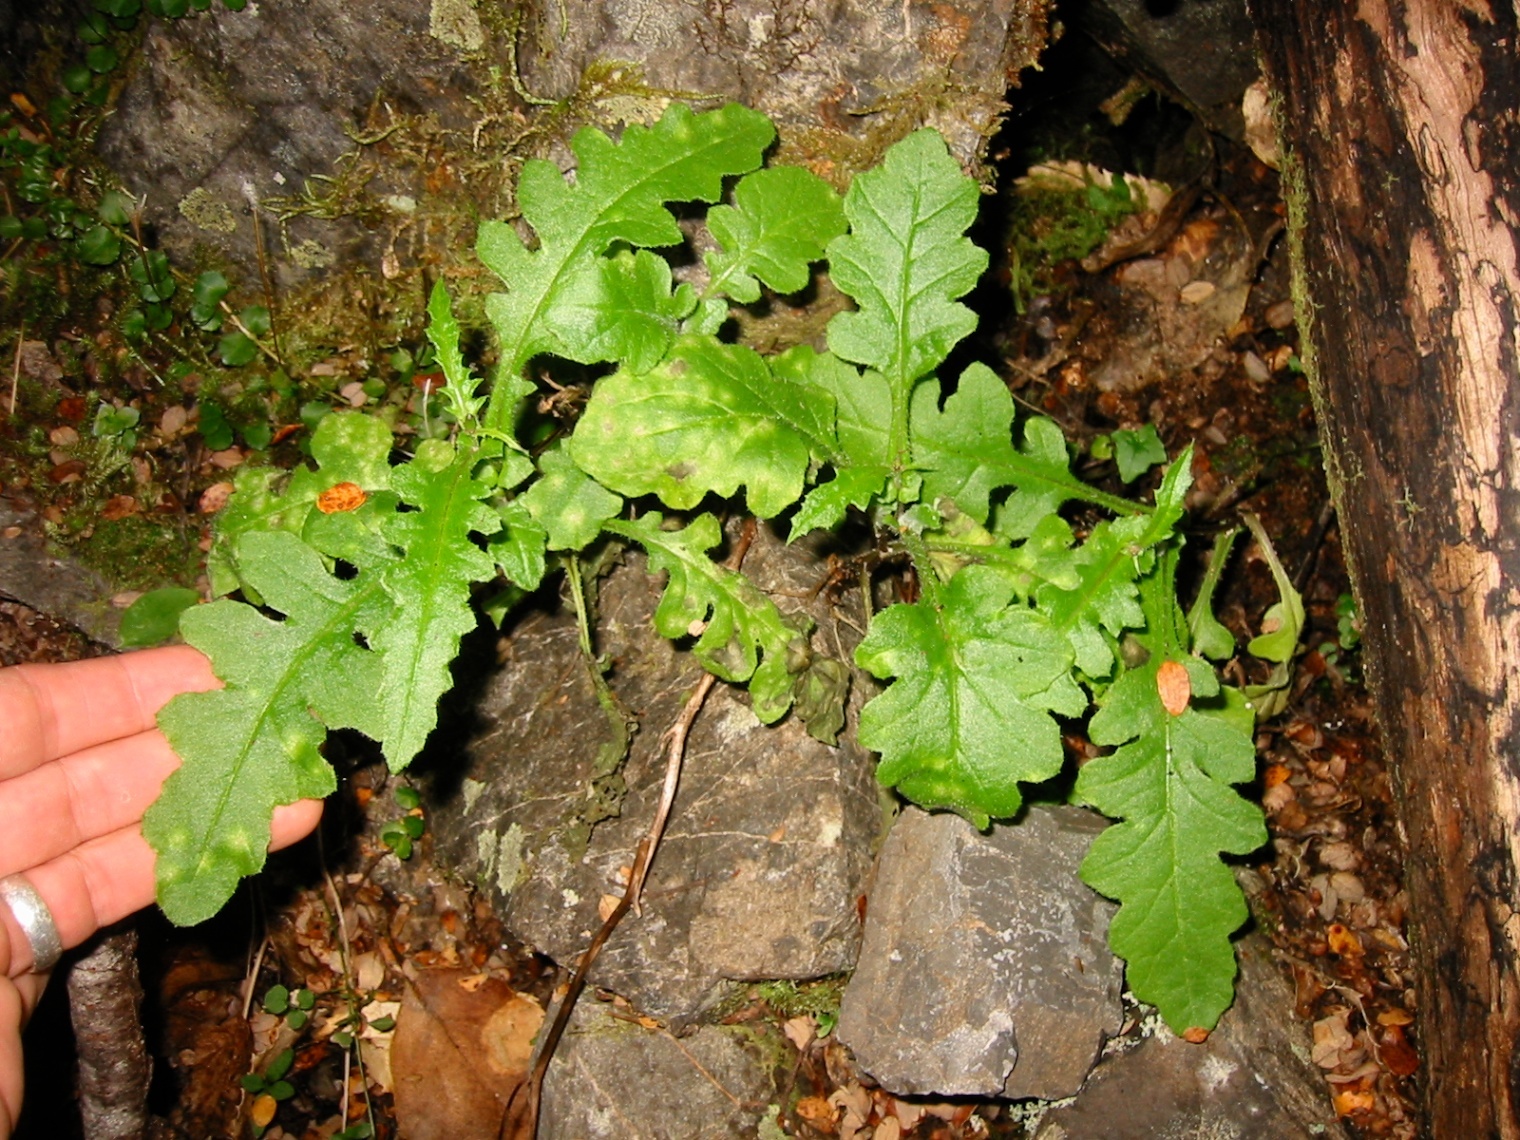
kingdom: Plantae
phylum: Tracheophyta
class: Magnoliopsida
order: Asterales
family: Asteraceae
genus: Senecio
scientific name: Senecio wairauensis
